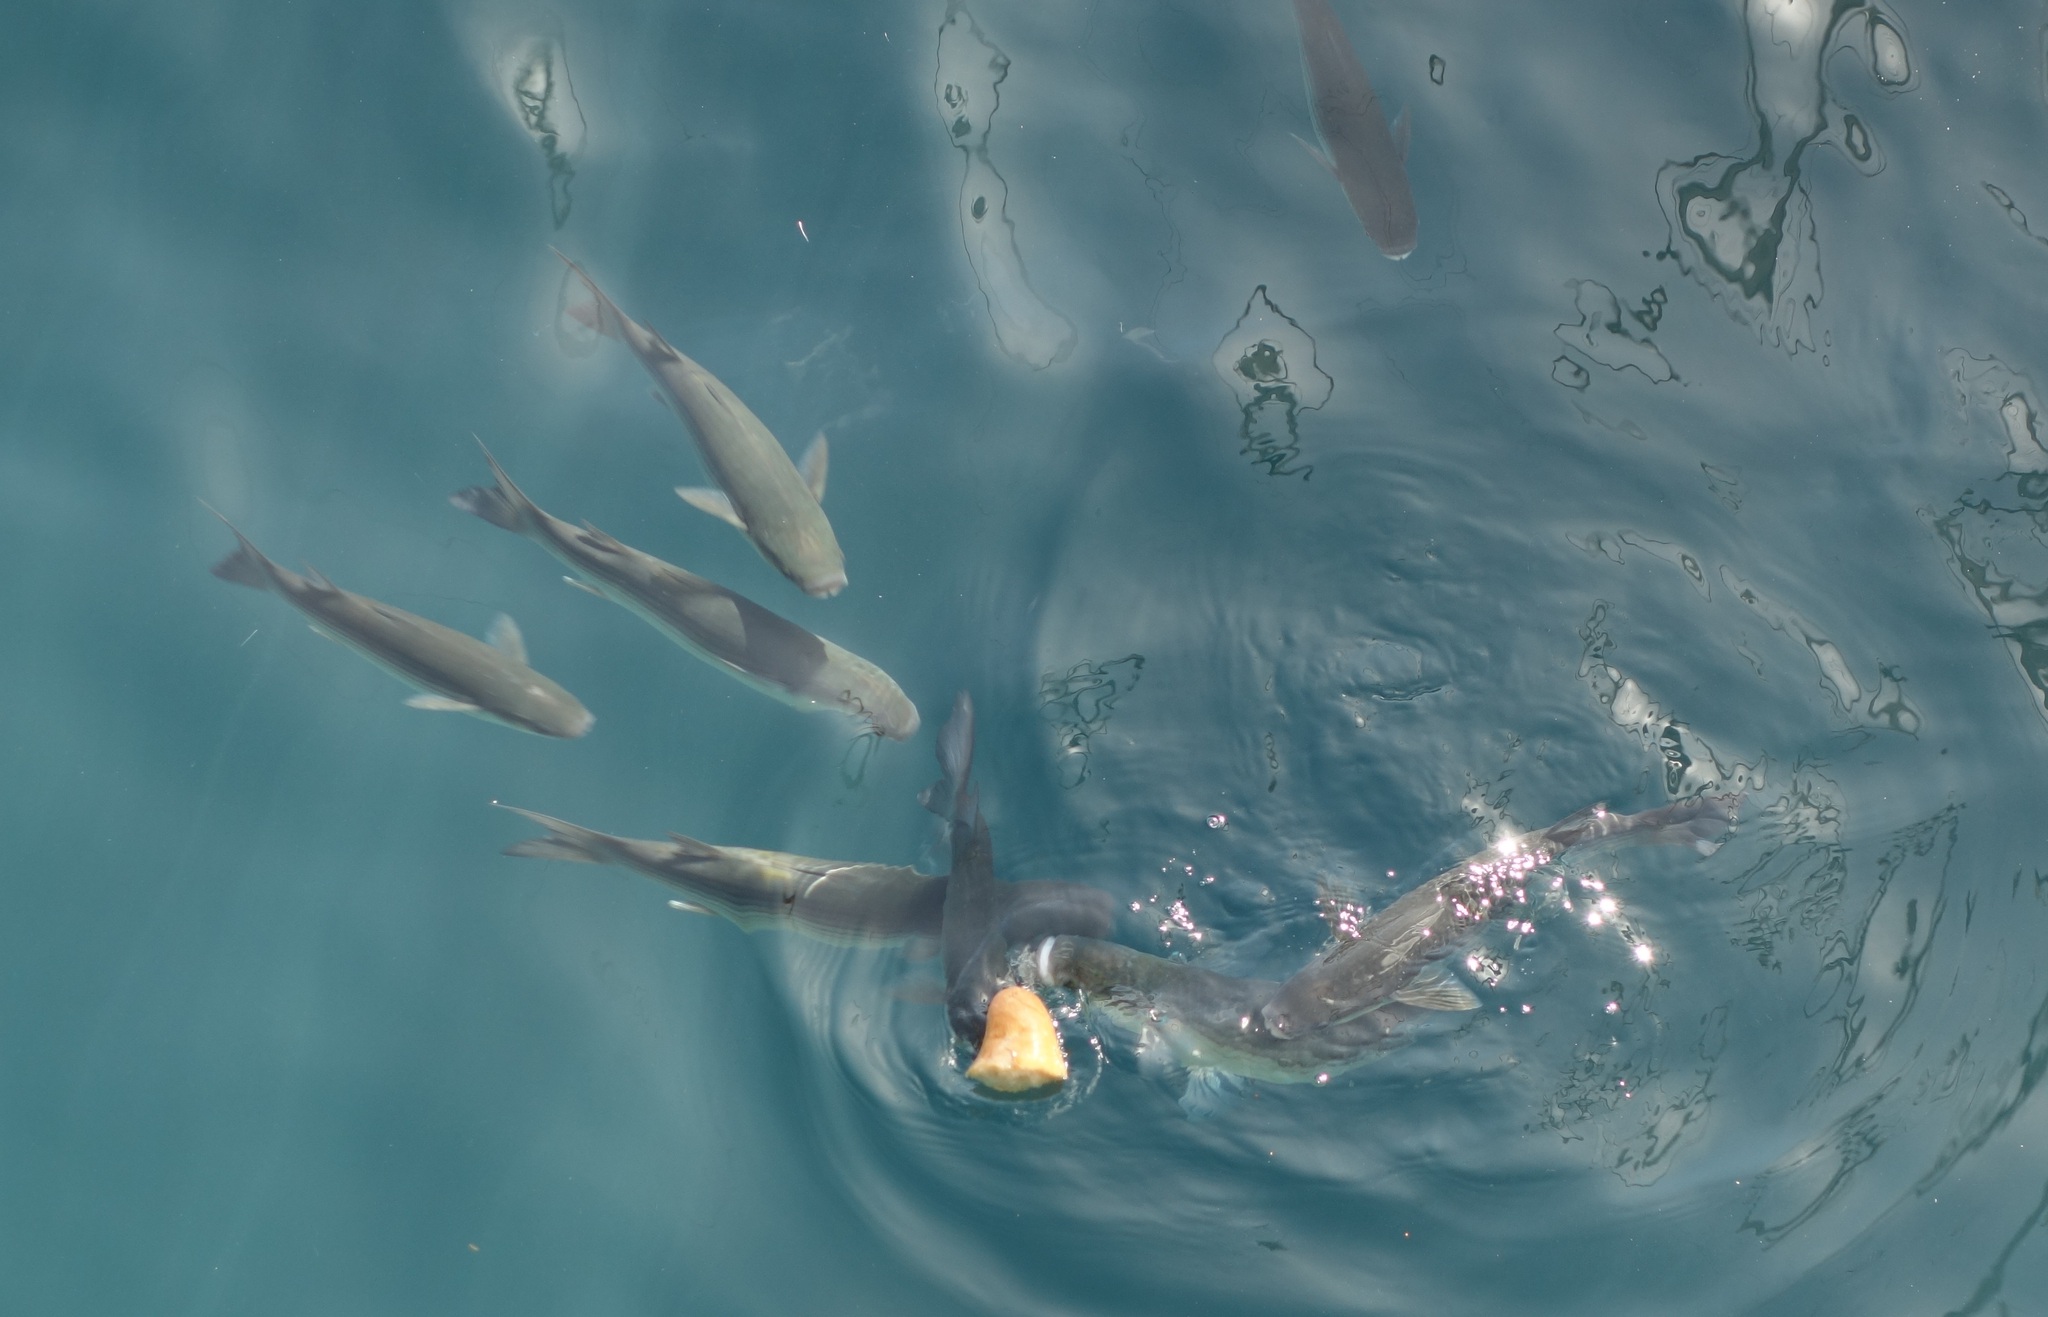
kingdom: Animalia
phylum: Chordata
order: Mugiliformes
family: Mugilidae
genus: Chelon
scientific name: Chelon labrosus
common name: Thick-lipped mullet
